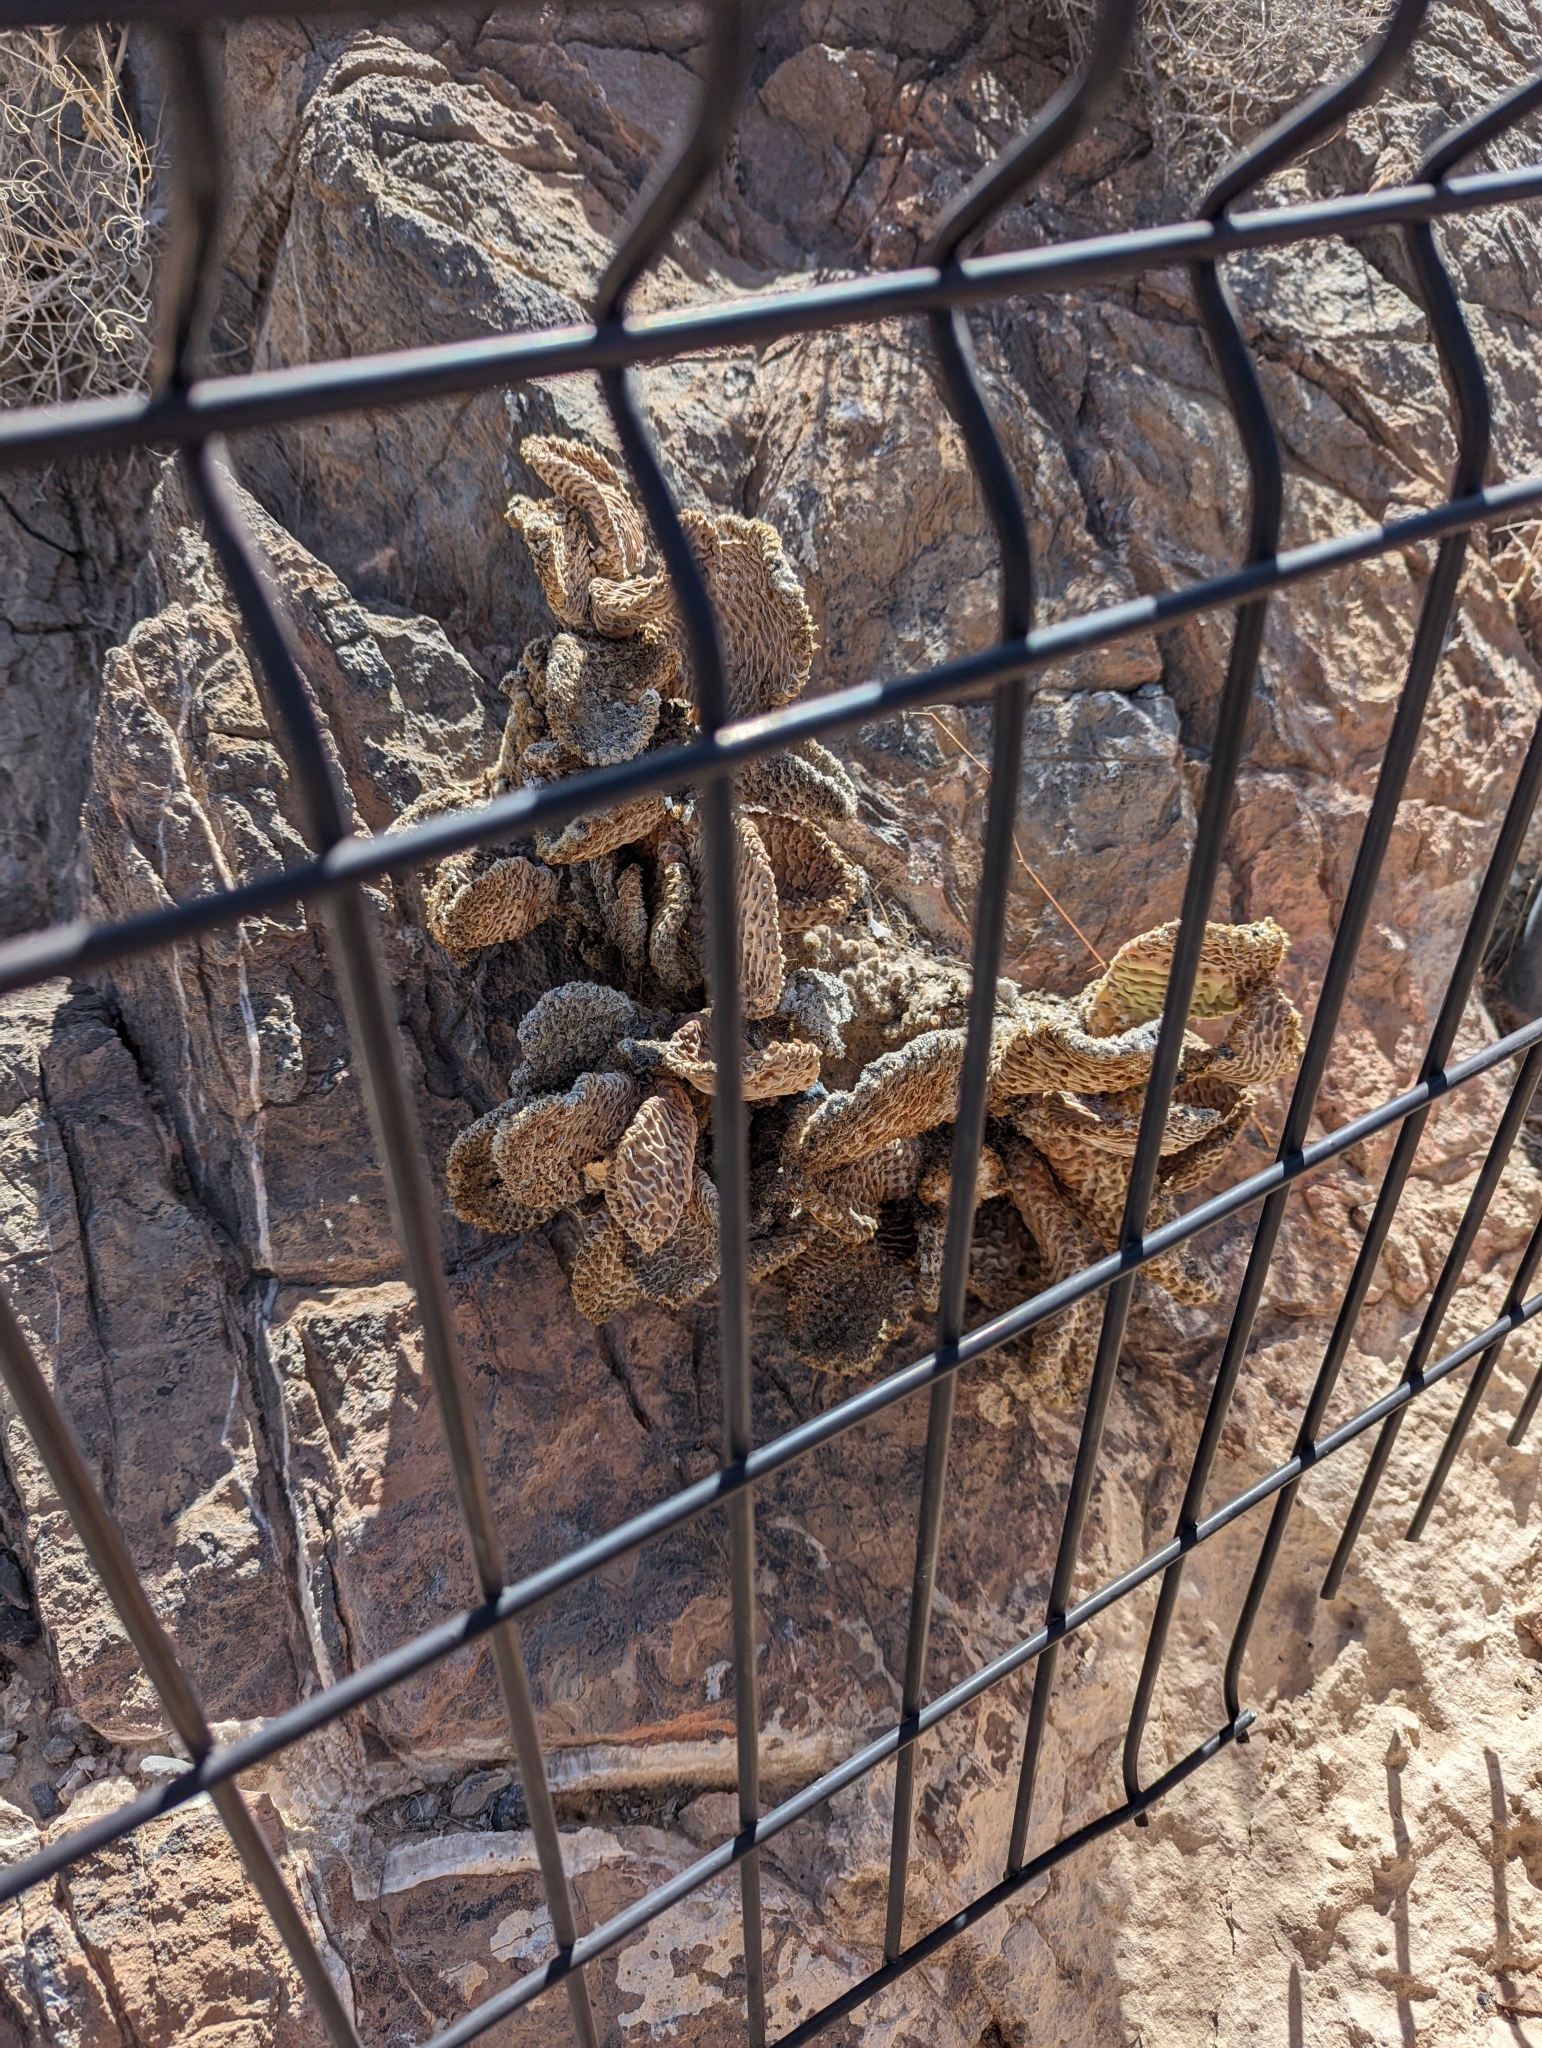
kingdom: Plantae
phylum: Tracheophyta
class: Magnoliopsida
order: Caryophyllales
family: Cactaceae
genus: Opuntia
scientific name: Opuntia basilaris
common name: Beavertail prickly-pear
